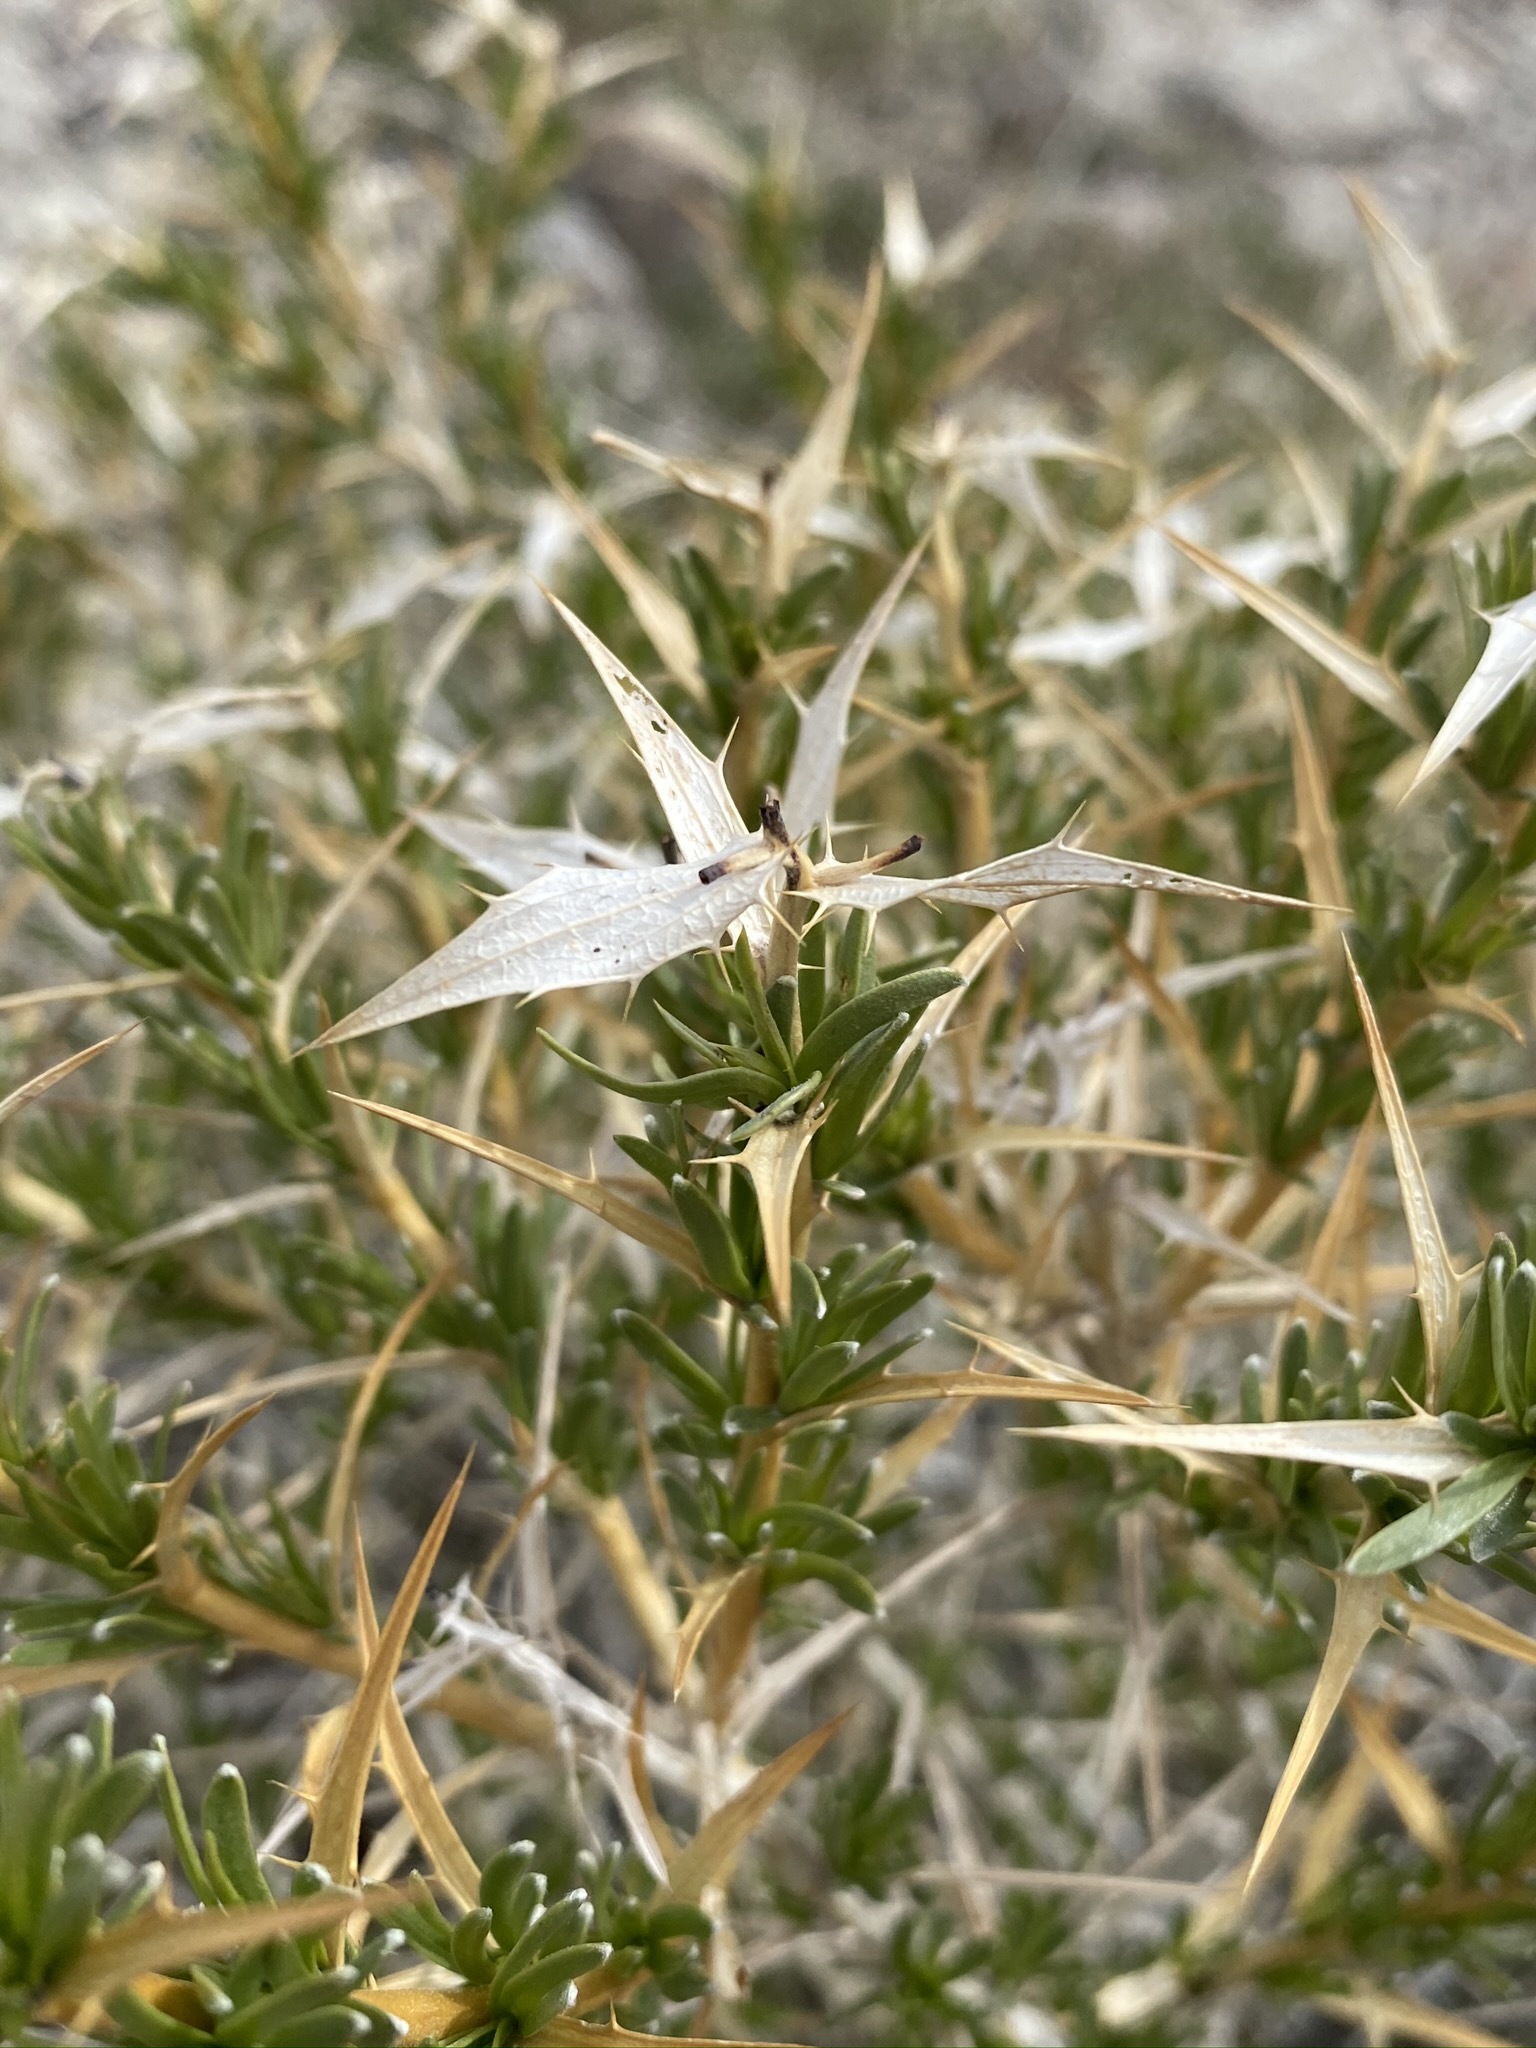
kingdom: Plantae
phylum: Tracheophyta
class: Magnoliopsida
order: Asterales
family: Asteraceae
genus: Hecastocleis
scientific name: Hecastocleis shockleyi
